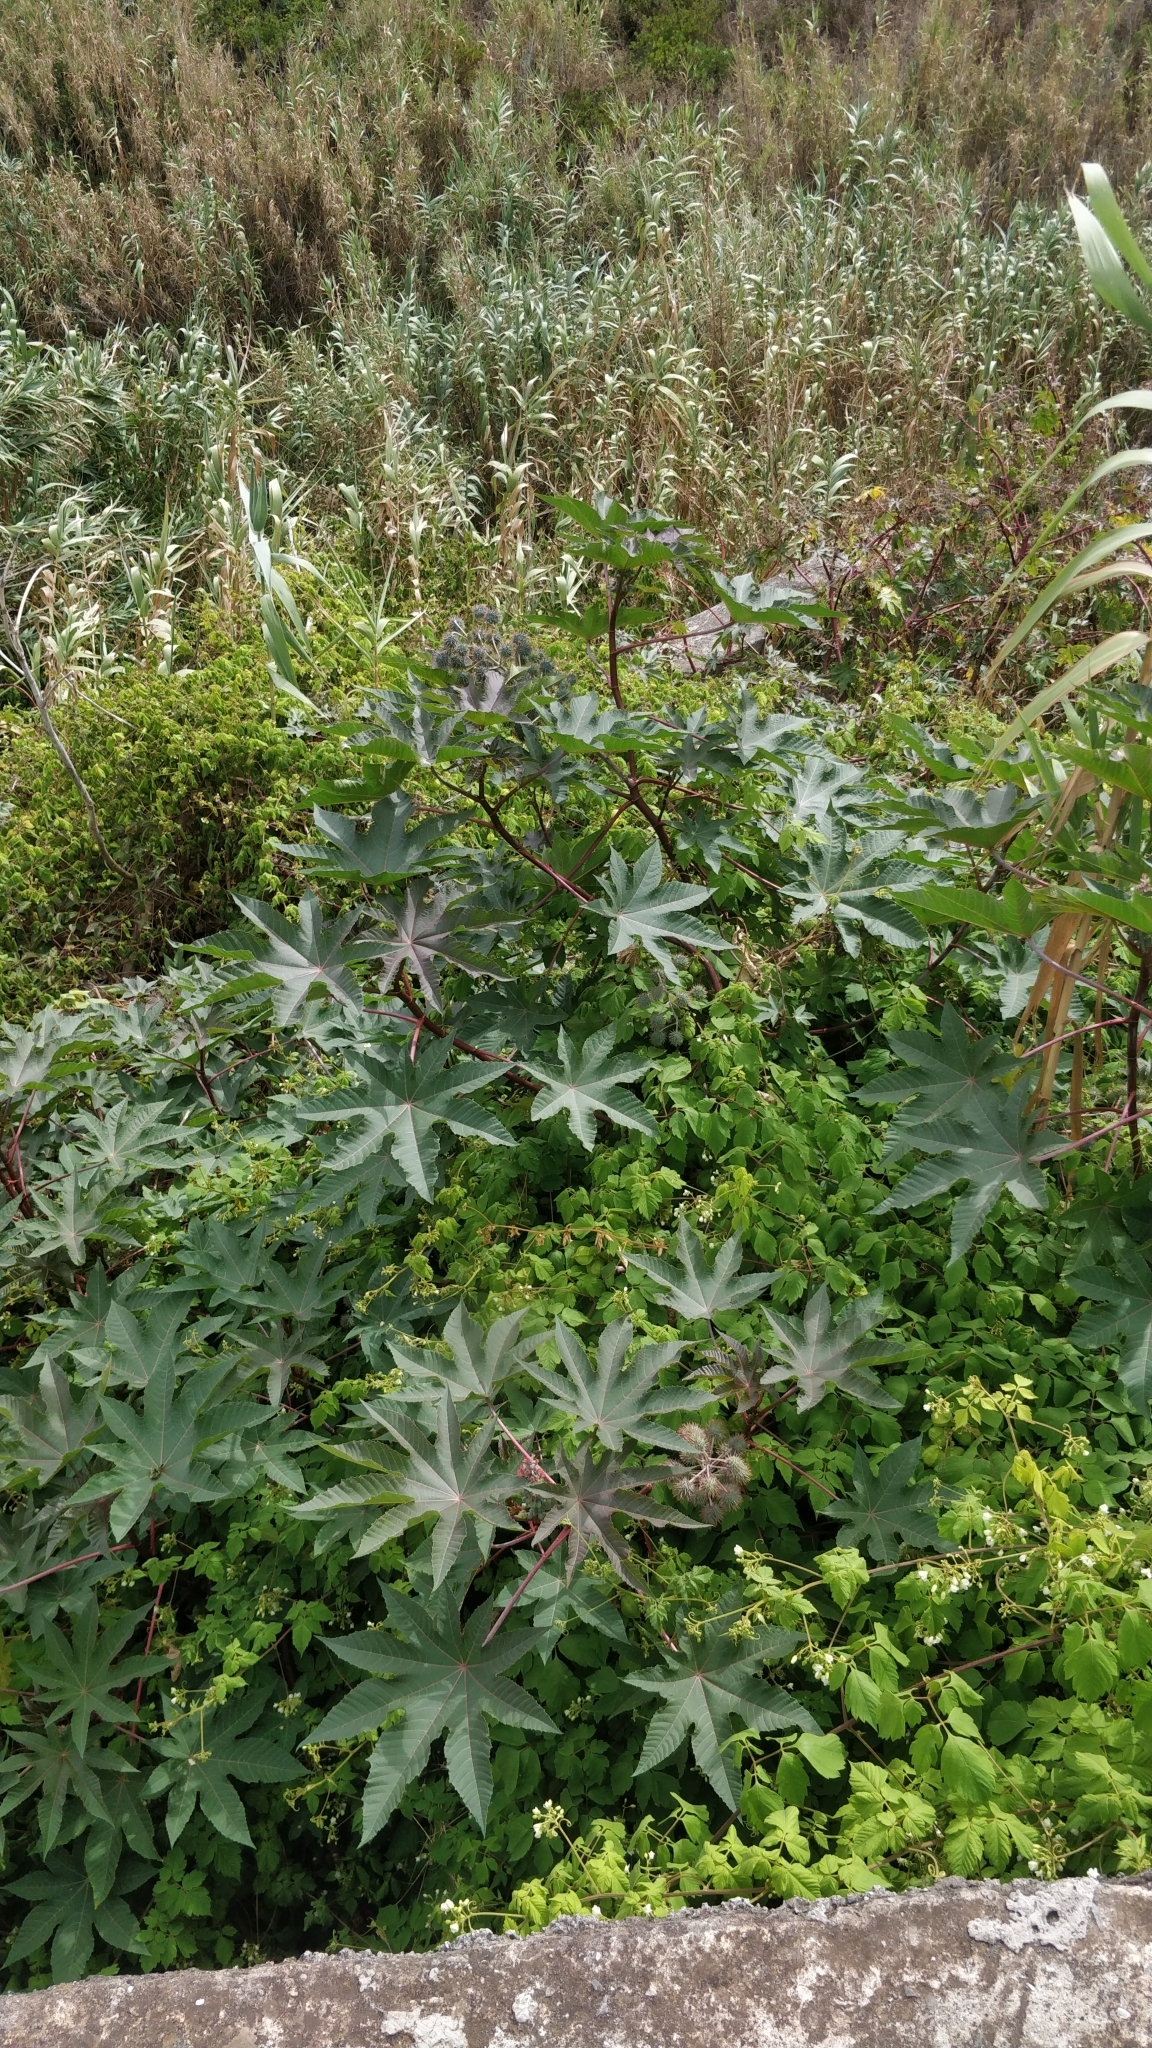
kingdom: Plantae
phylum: Tracheophyta
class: Magnoliopsida
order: Malpighiales
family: Euphorbiaceae
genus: Ricinus
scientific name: Ricinus communis
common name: Castor-oil-plant
